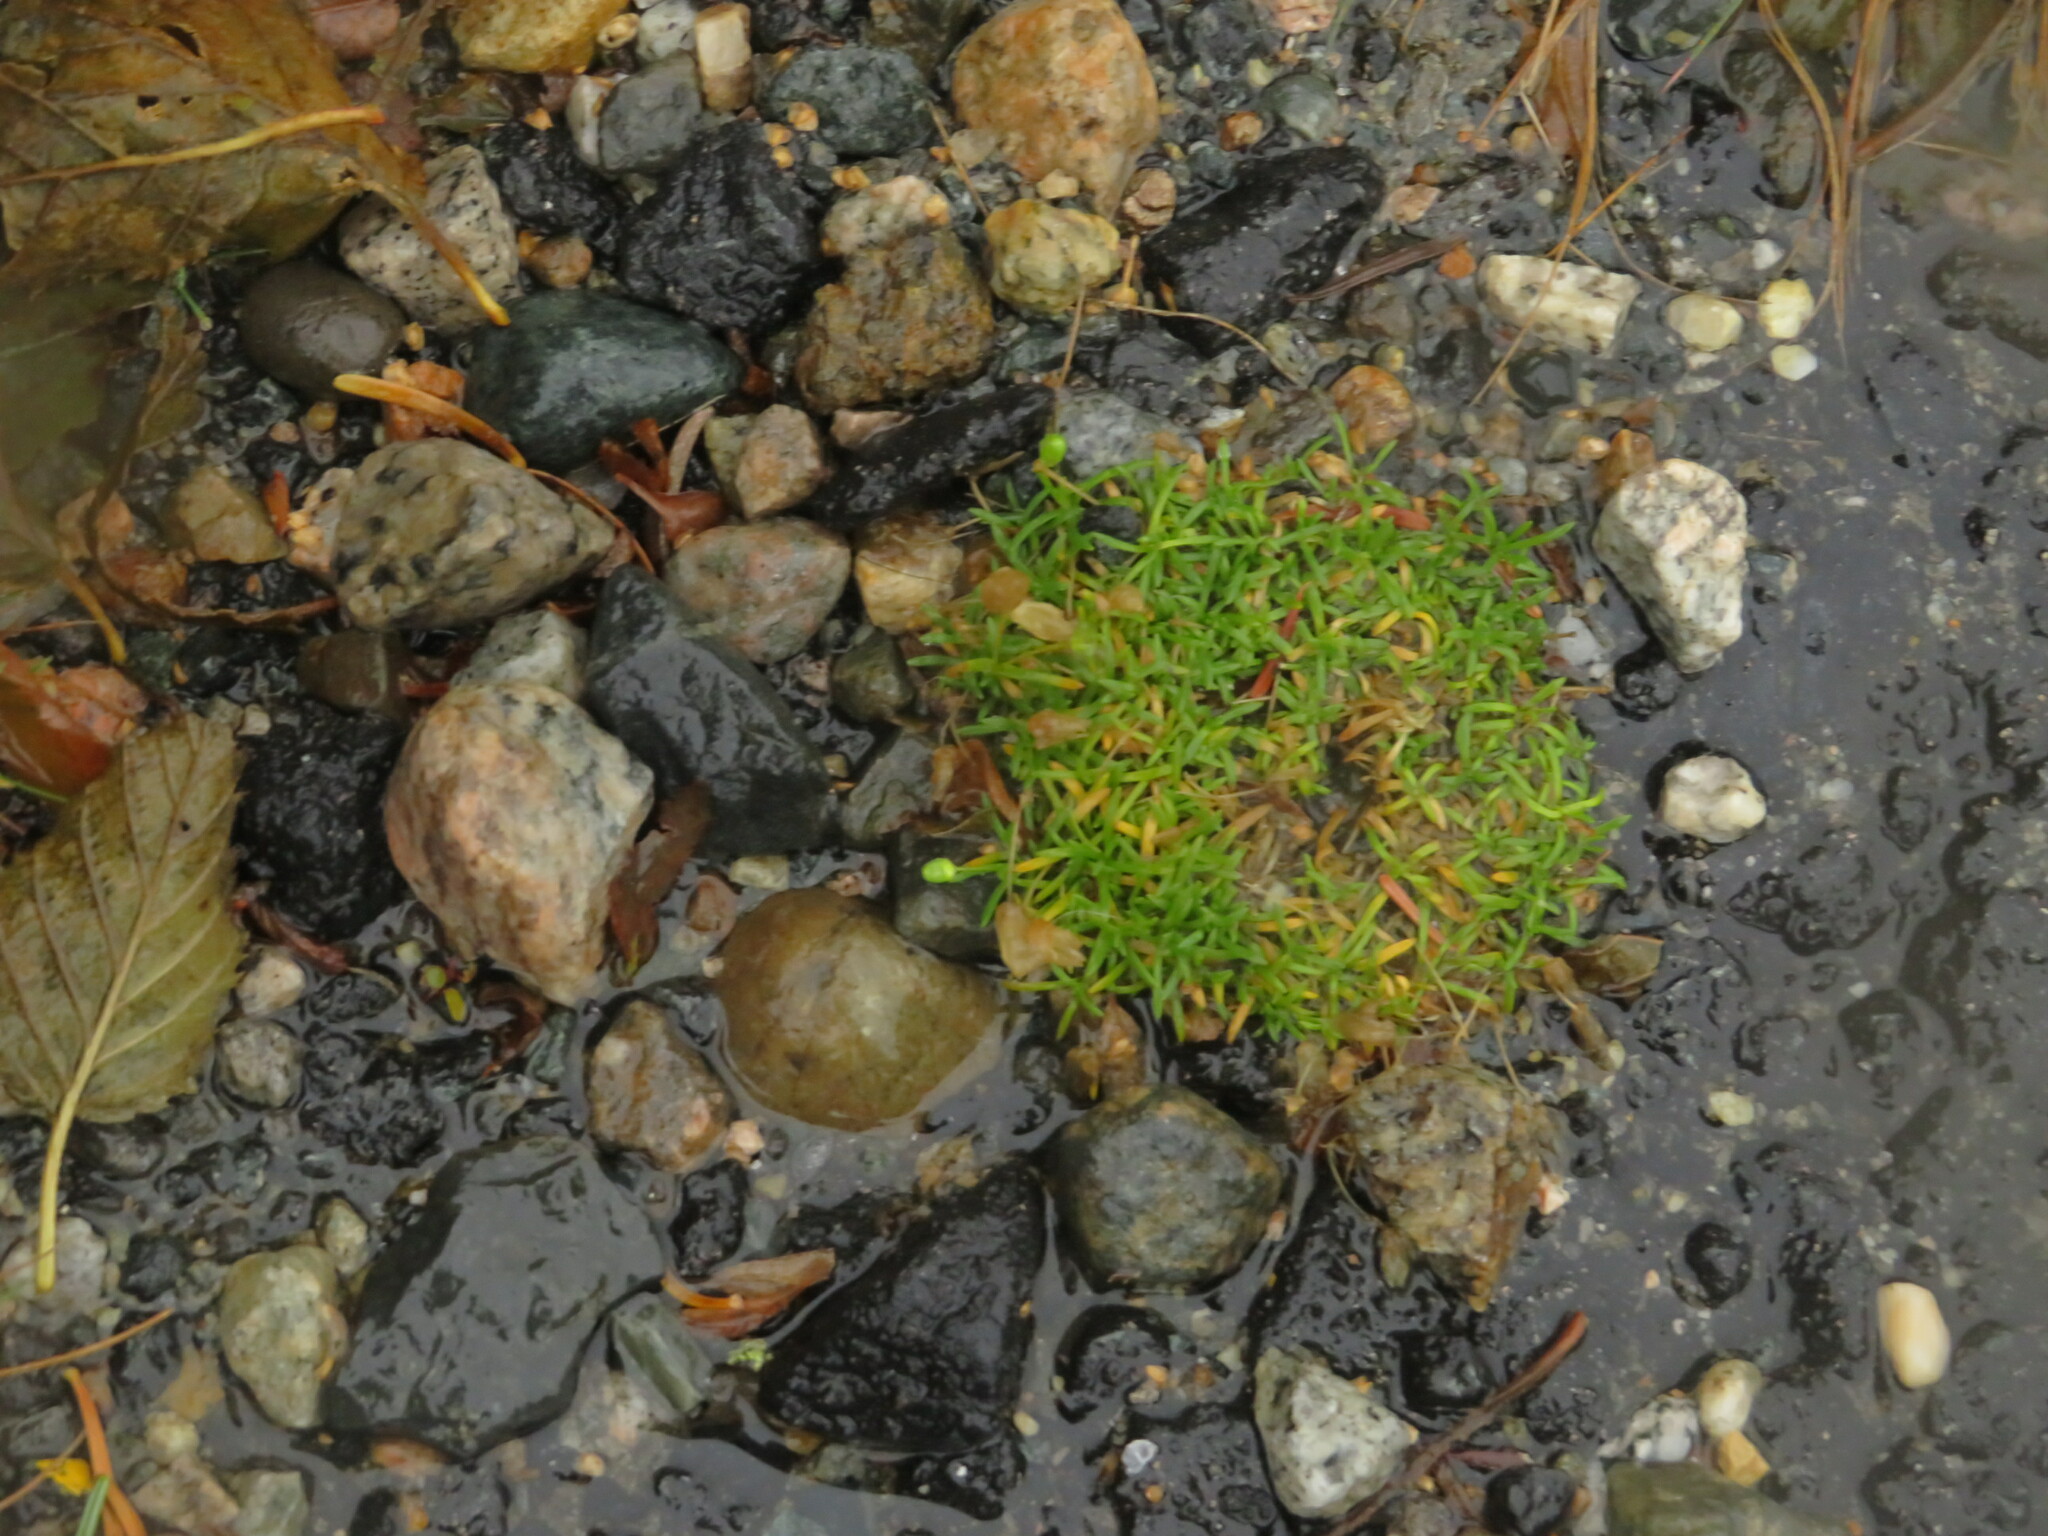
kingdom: Plantae
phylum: Tracheophyta
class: Magnoliopsida
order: Caryophyllales
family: Caryophyllaceae
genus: Geocarpon
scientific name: Geocarpon groenlandicum
